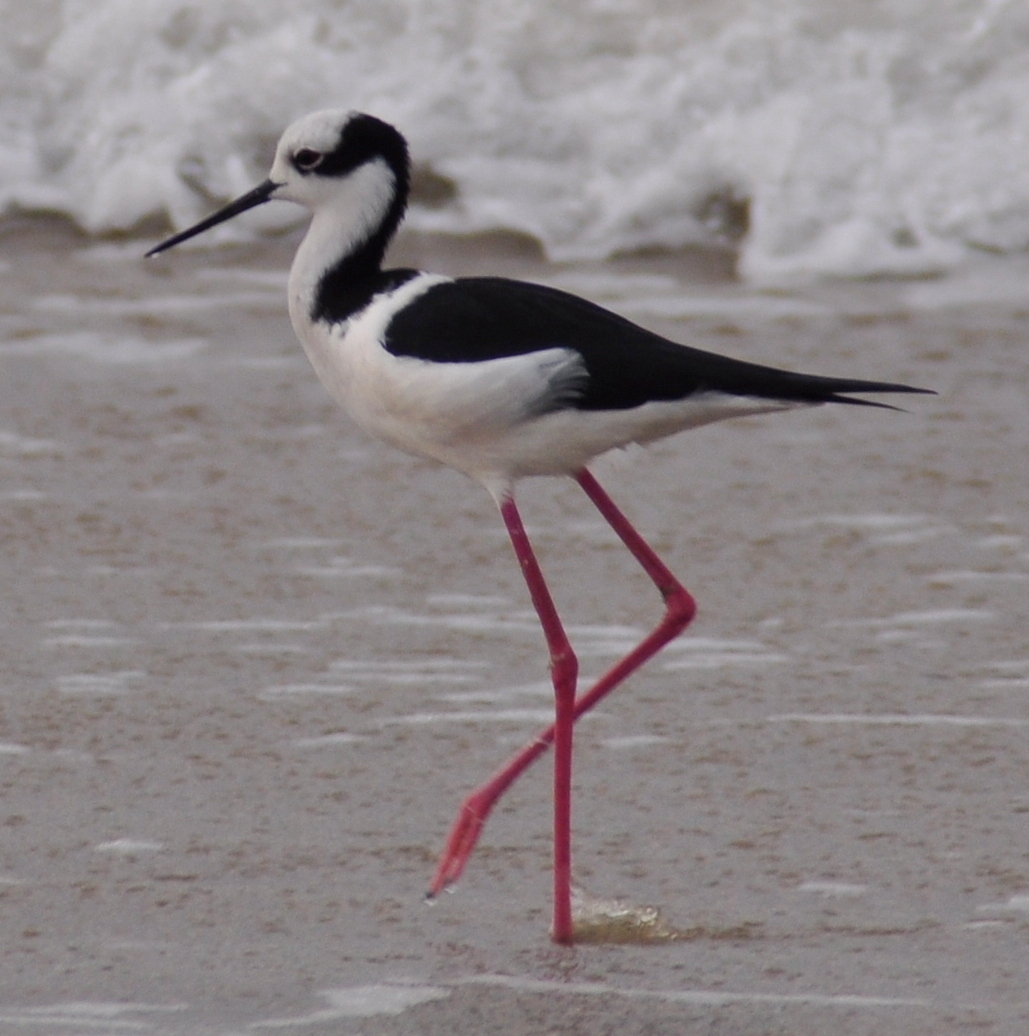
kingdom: Animalia
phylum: Chordata
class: Aves
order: Charadriiformes
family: Recurvirostridae
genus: Himantopus
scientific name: Himantopus mexicanus
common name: Black-necked stilt
